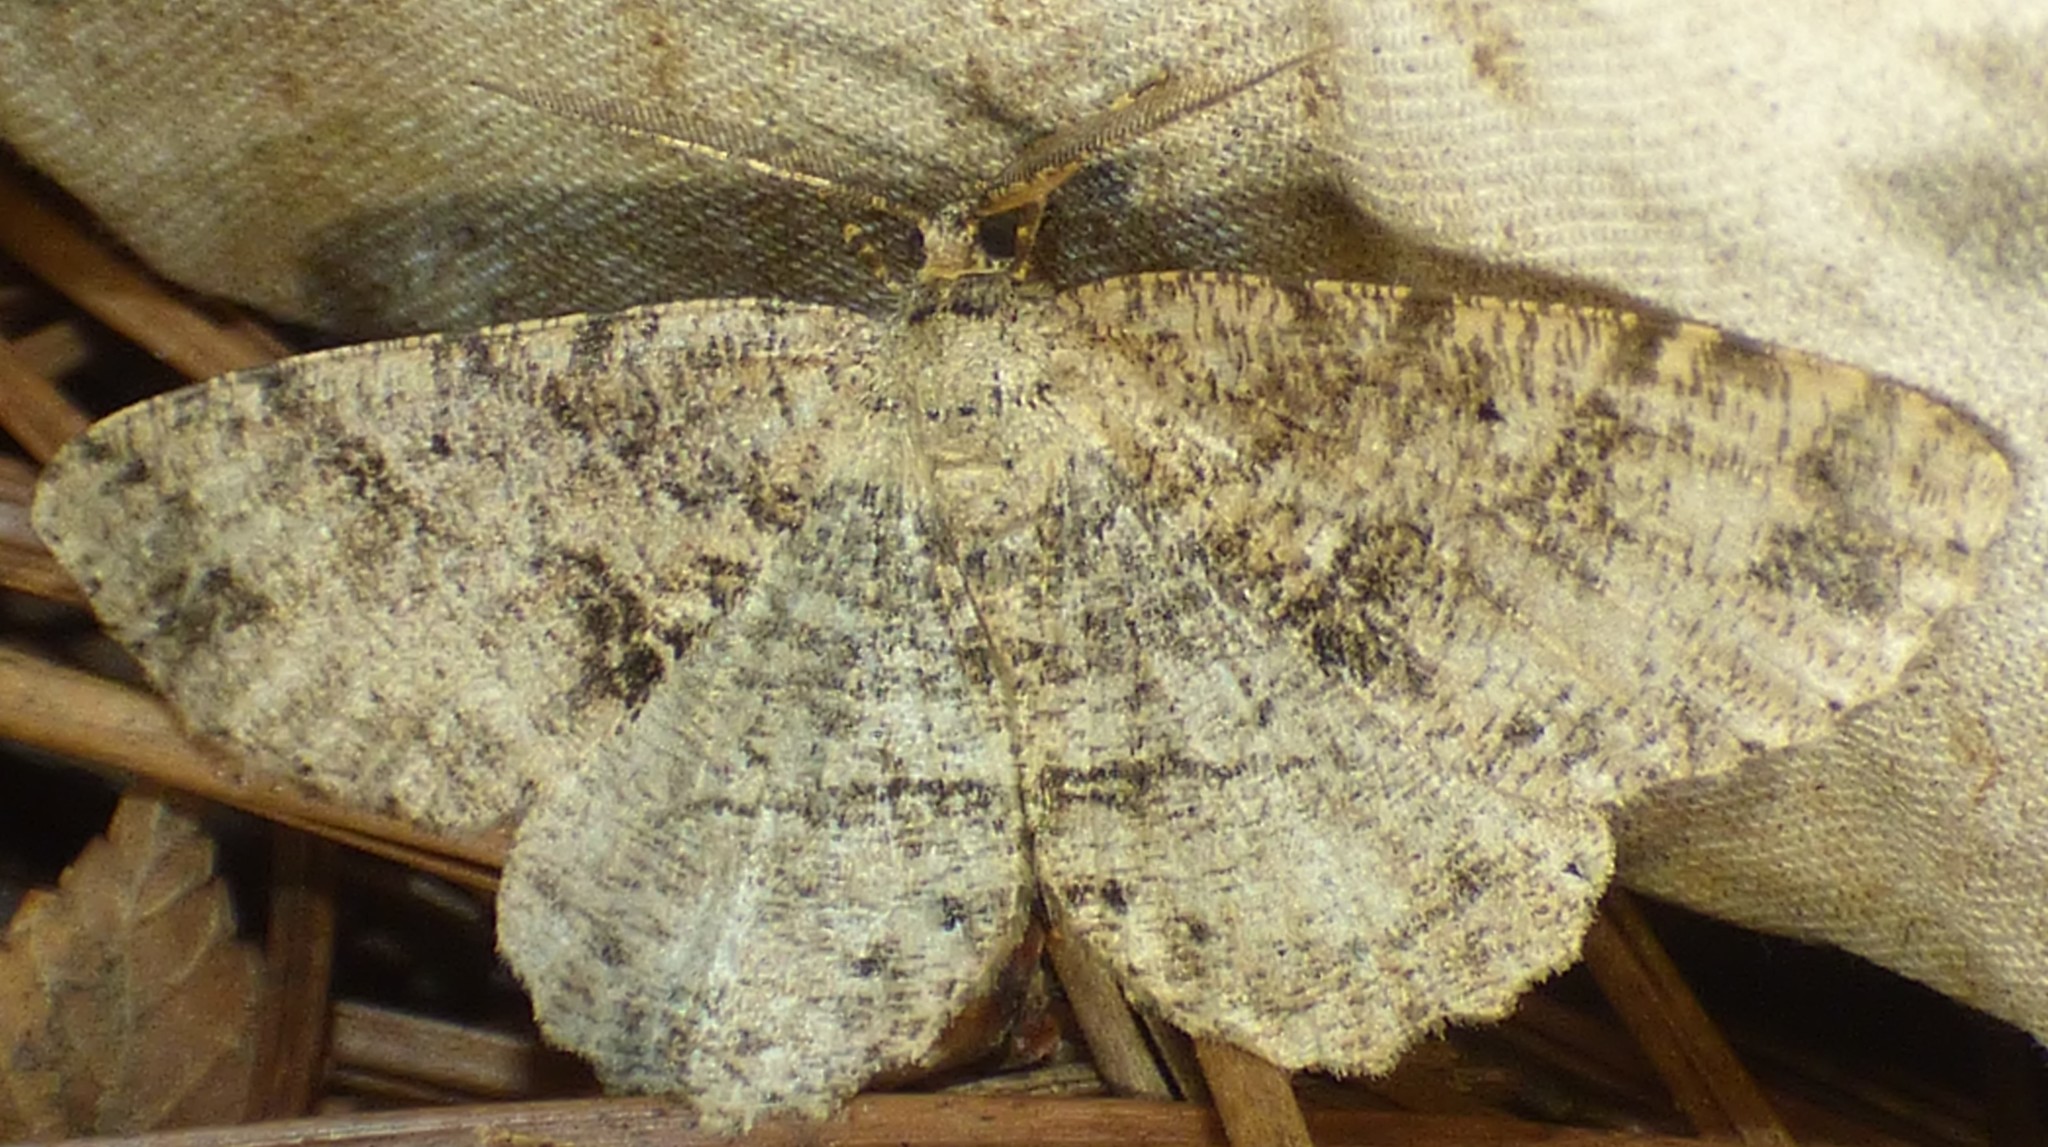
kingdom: Animalia
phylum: Arthropoda
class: Insecta
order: Lepidoptera
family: Geometridae
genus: Melanolophia
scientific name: Melanolophia canadaria
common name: Canadian melanolophia
